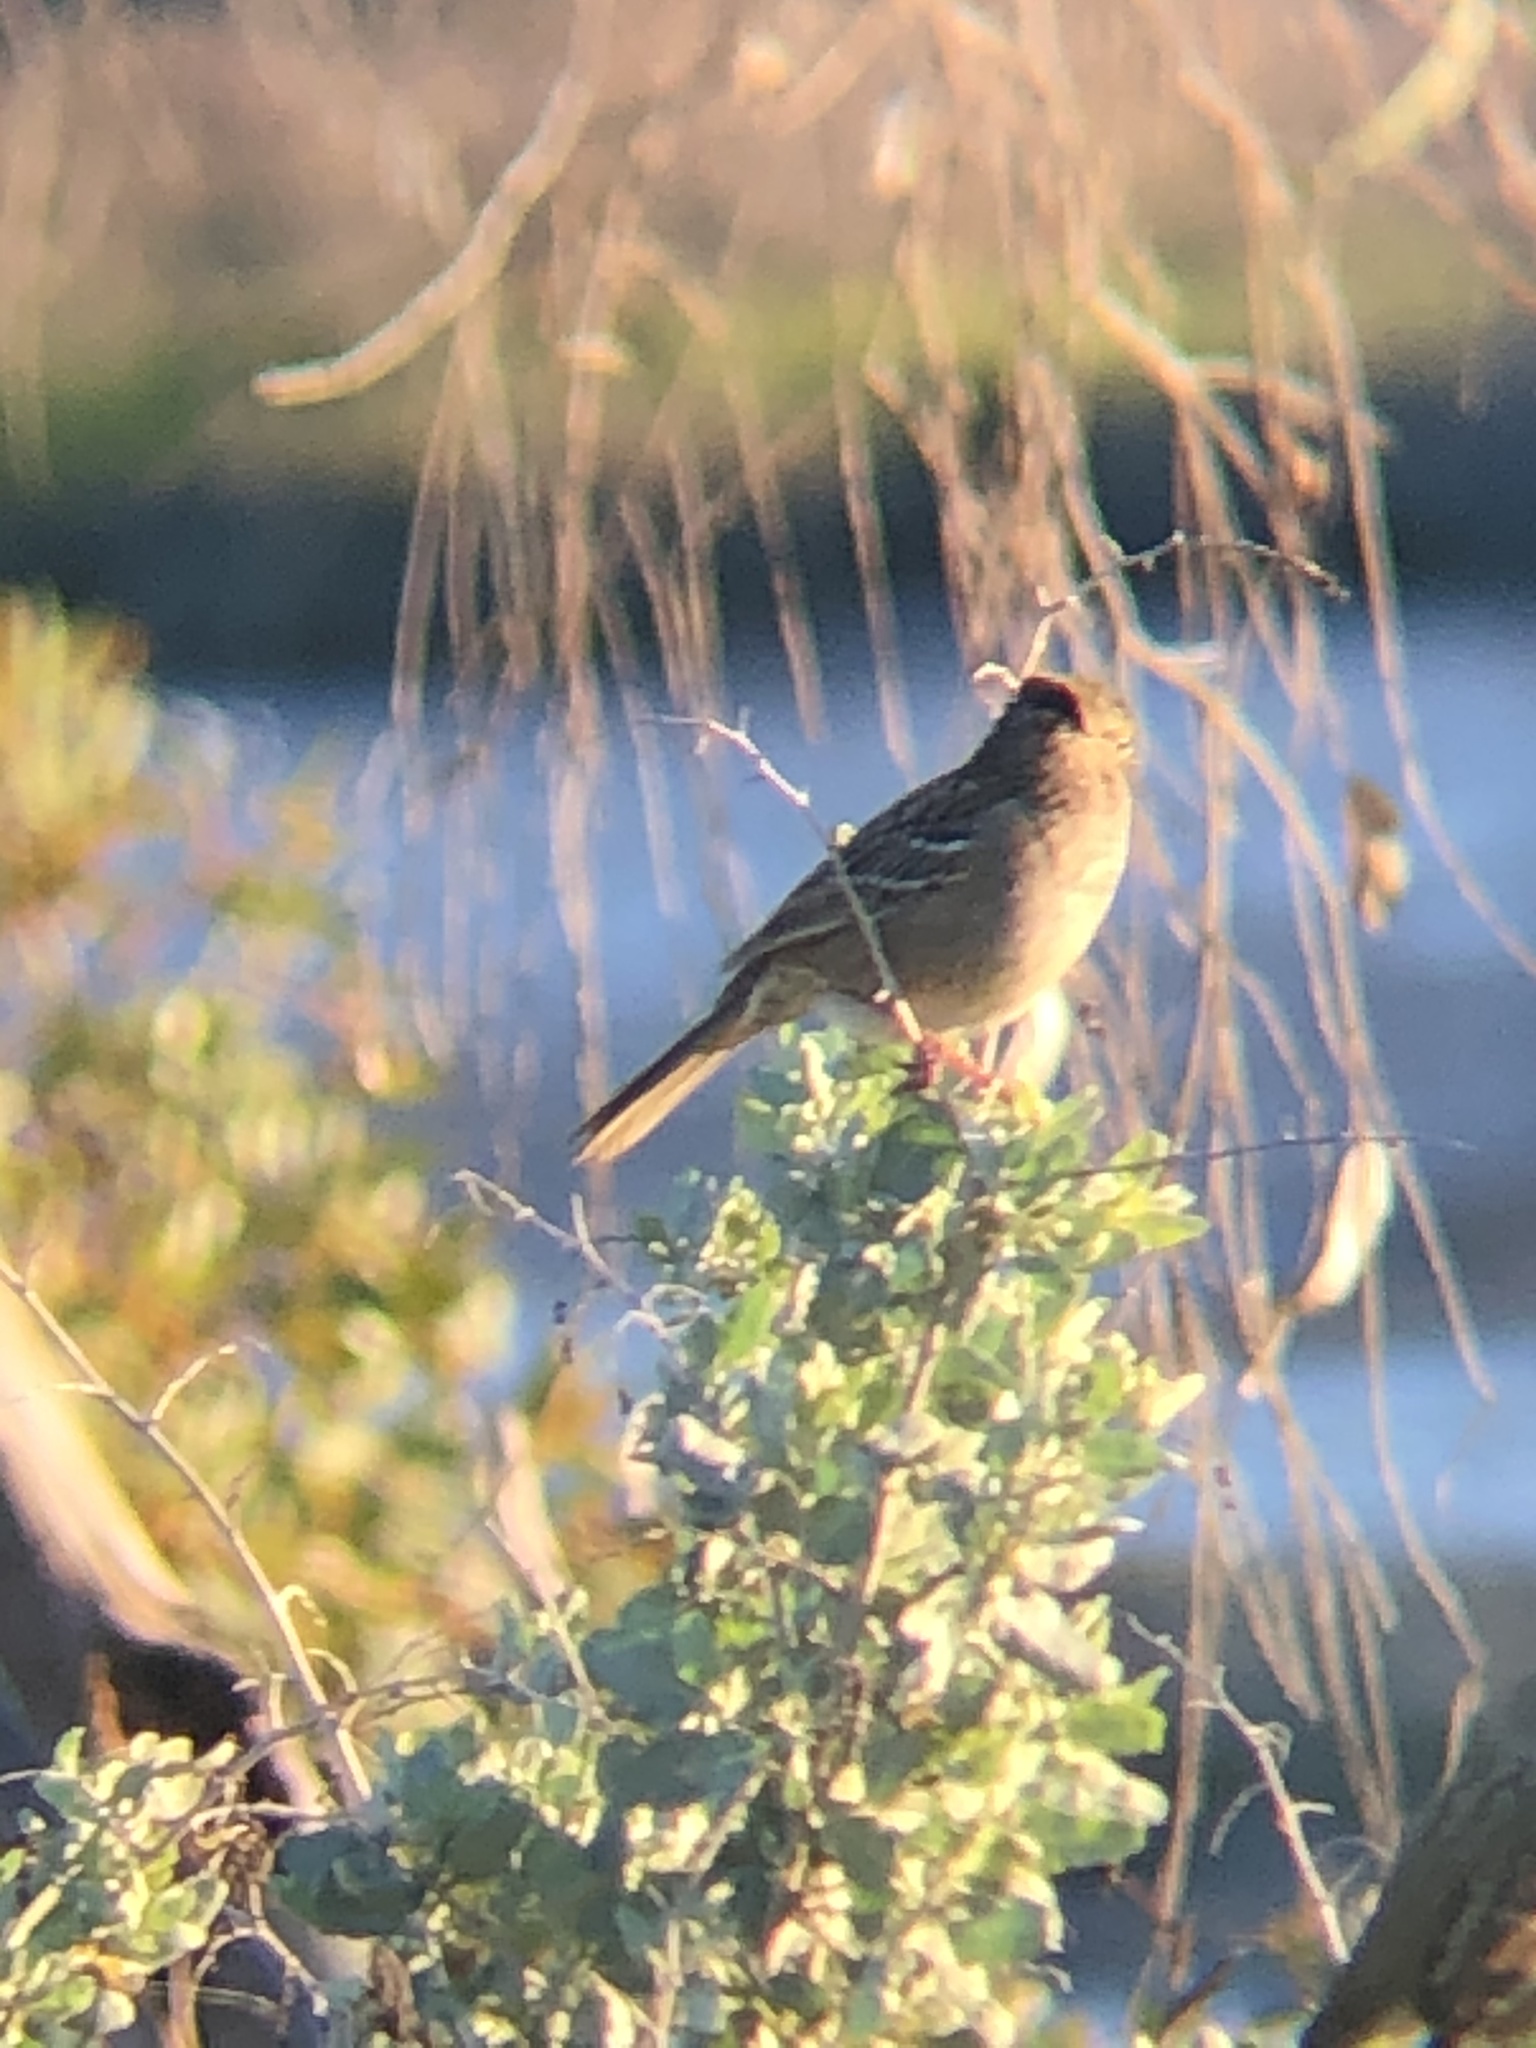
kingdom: Animalia
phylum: Chordata
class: Aves
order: Passeriformes
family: Passerellidae
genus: Zonotrichia
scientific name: Zonotrichia atricapilla
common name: Golden-crowned sparrow
